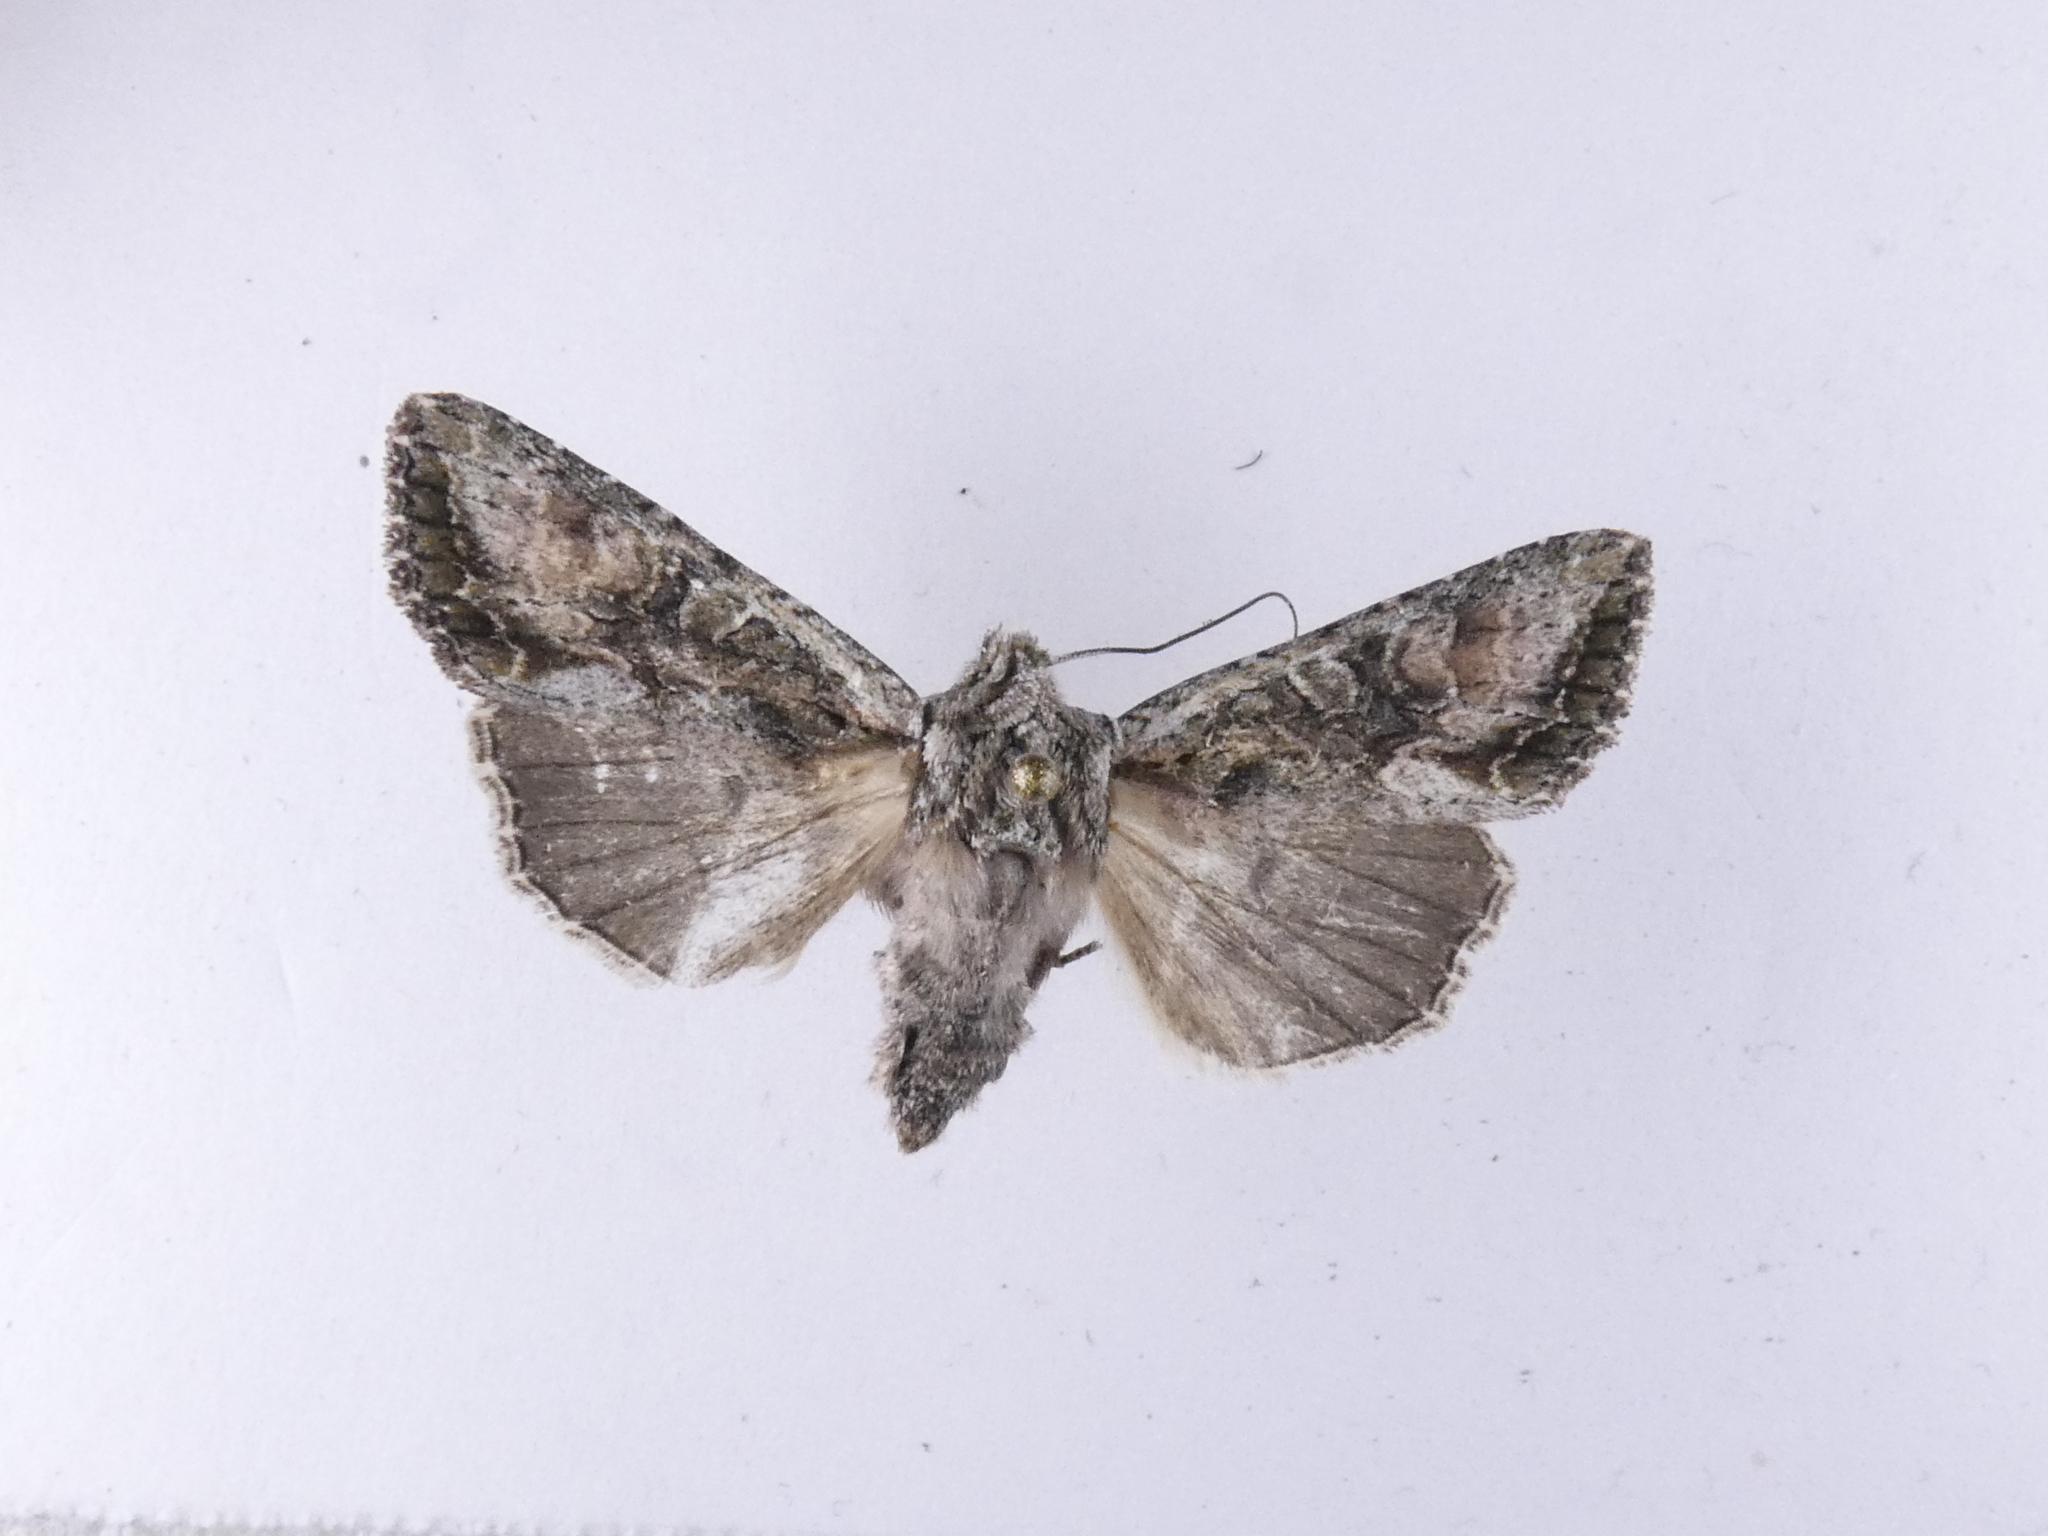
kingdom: Animalia
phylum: Arthropoda
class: Insecta
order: Lepidoptera
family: Noctuidae
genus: Ichneutica
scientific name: Ichneutica mutans
